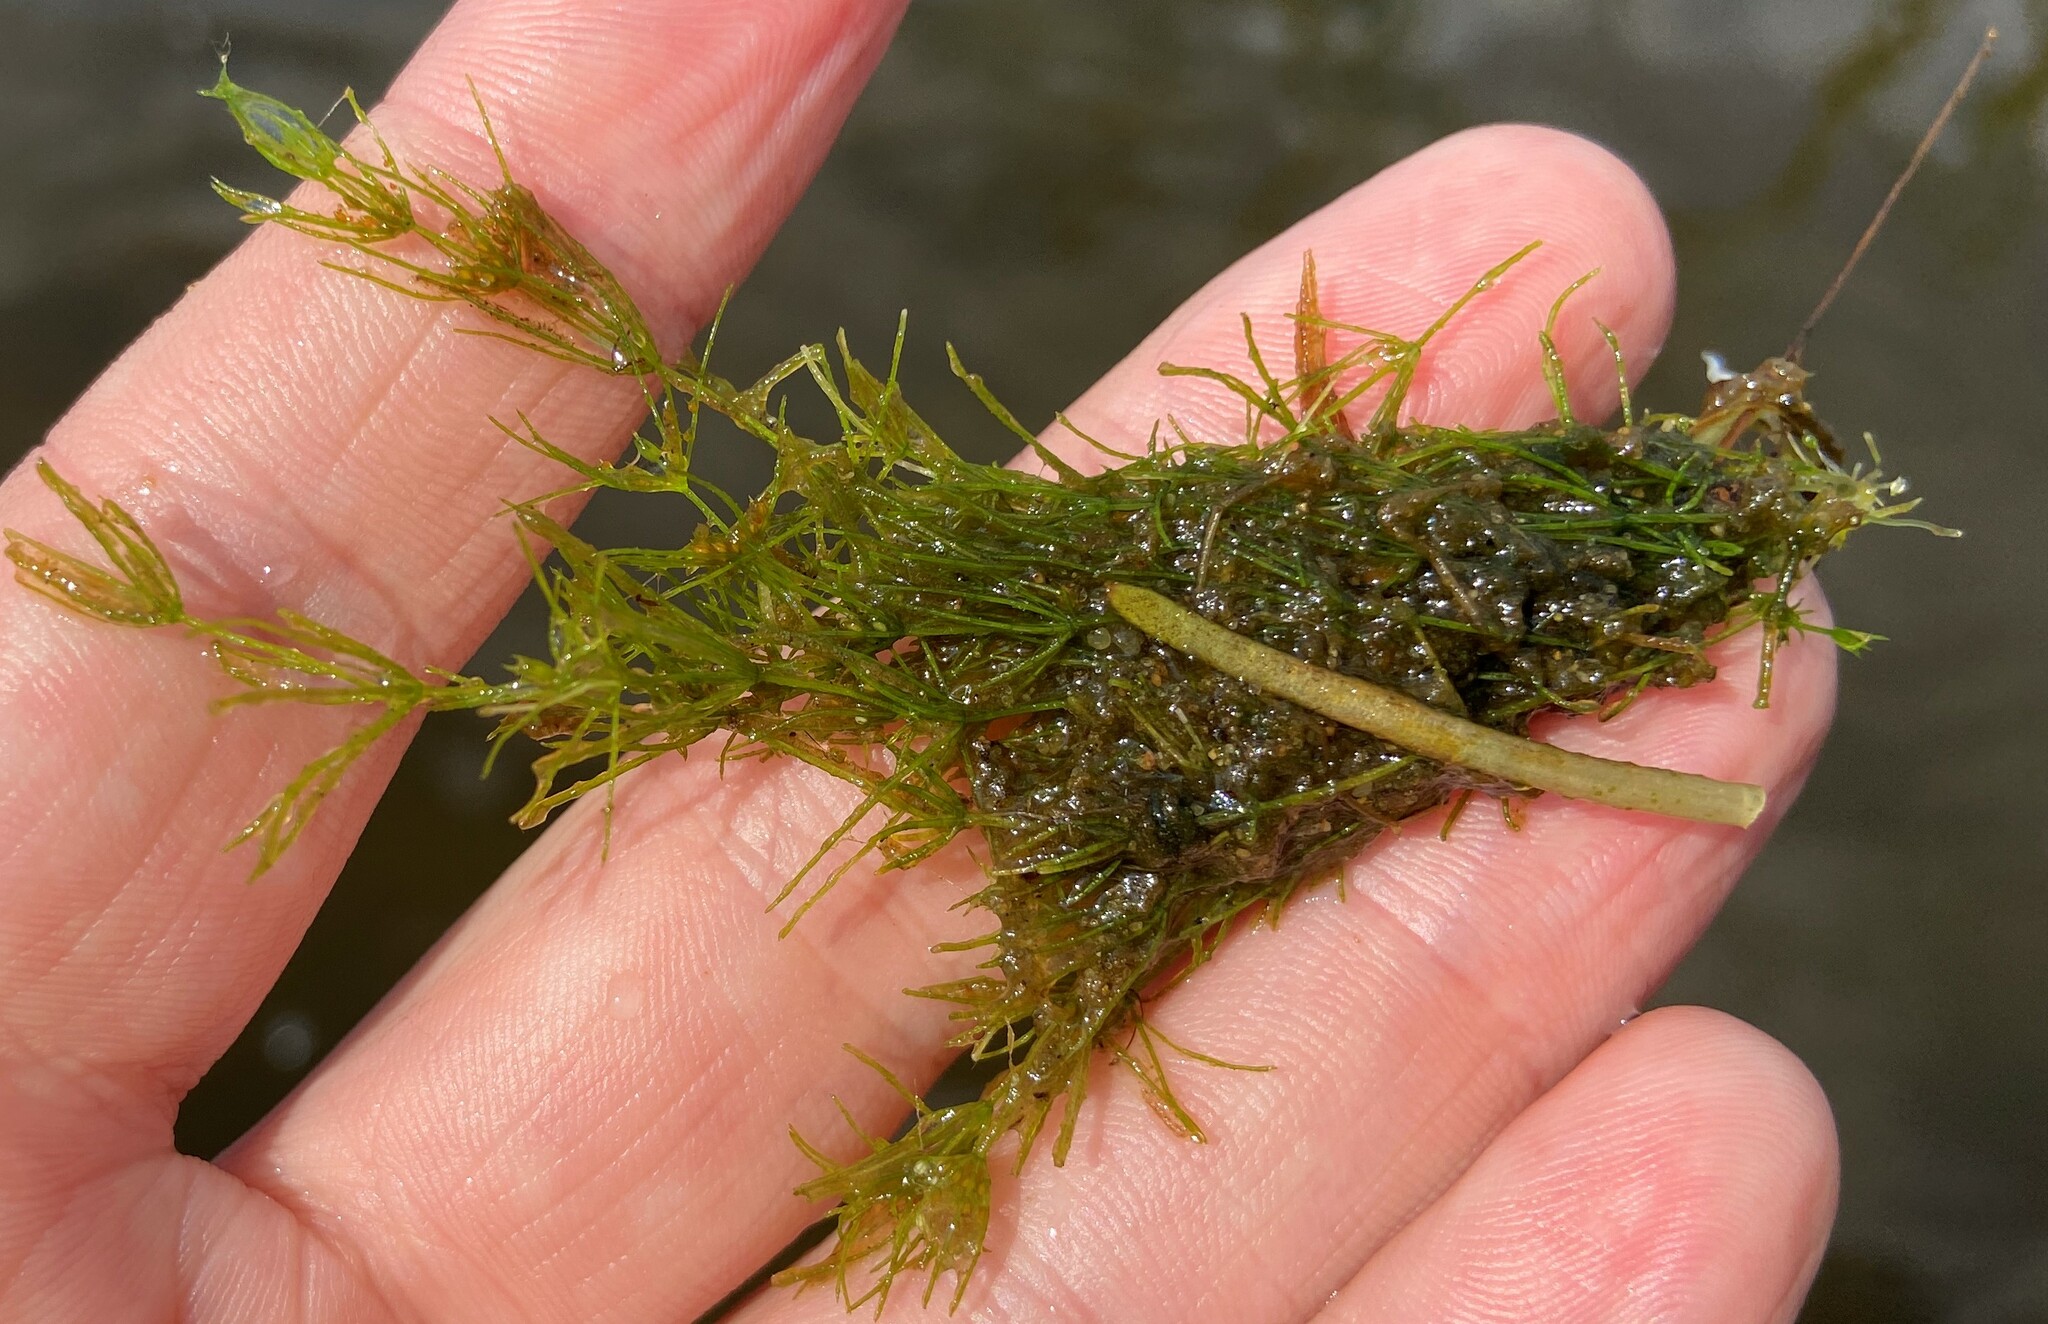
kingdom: Plantae
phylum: Charophyta
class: Charophyceae
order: Charales
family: Characeae
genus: Chara
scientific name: Chara virgata
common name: Delicate stonewort
